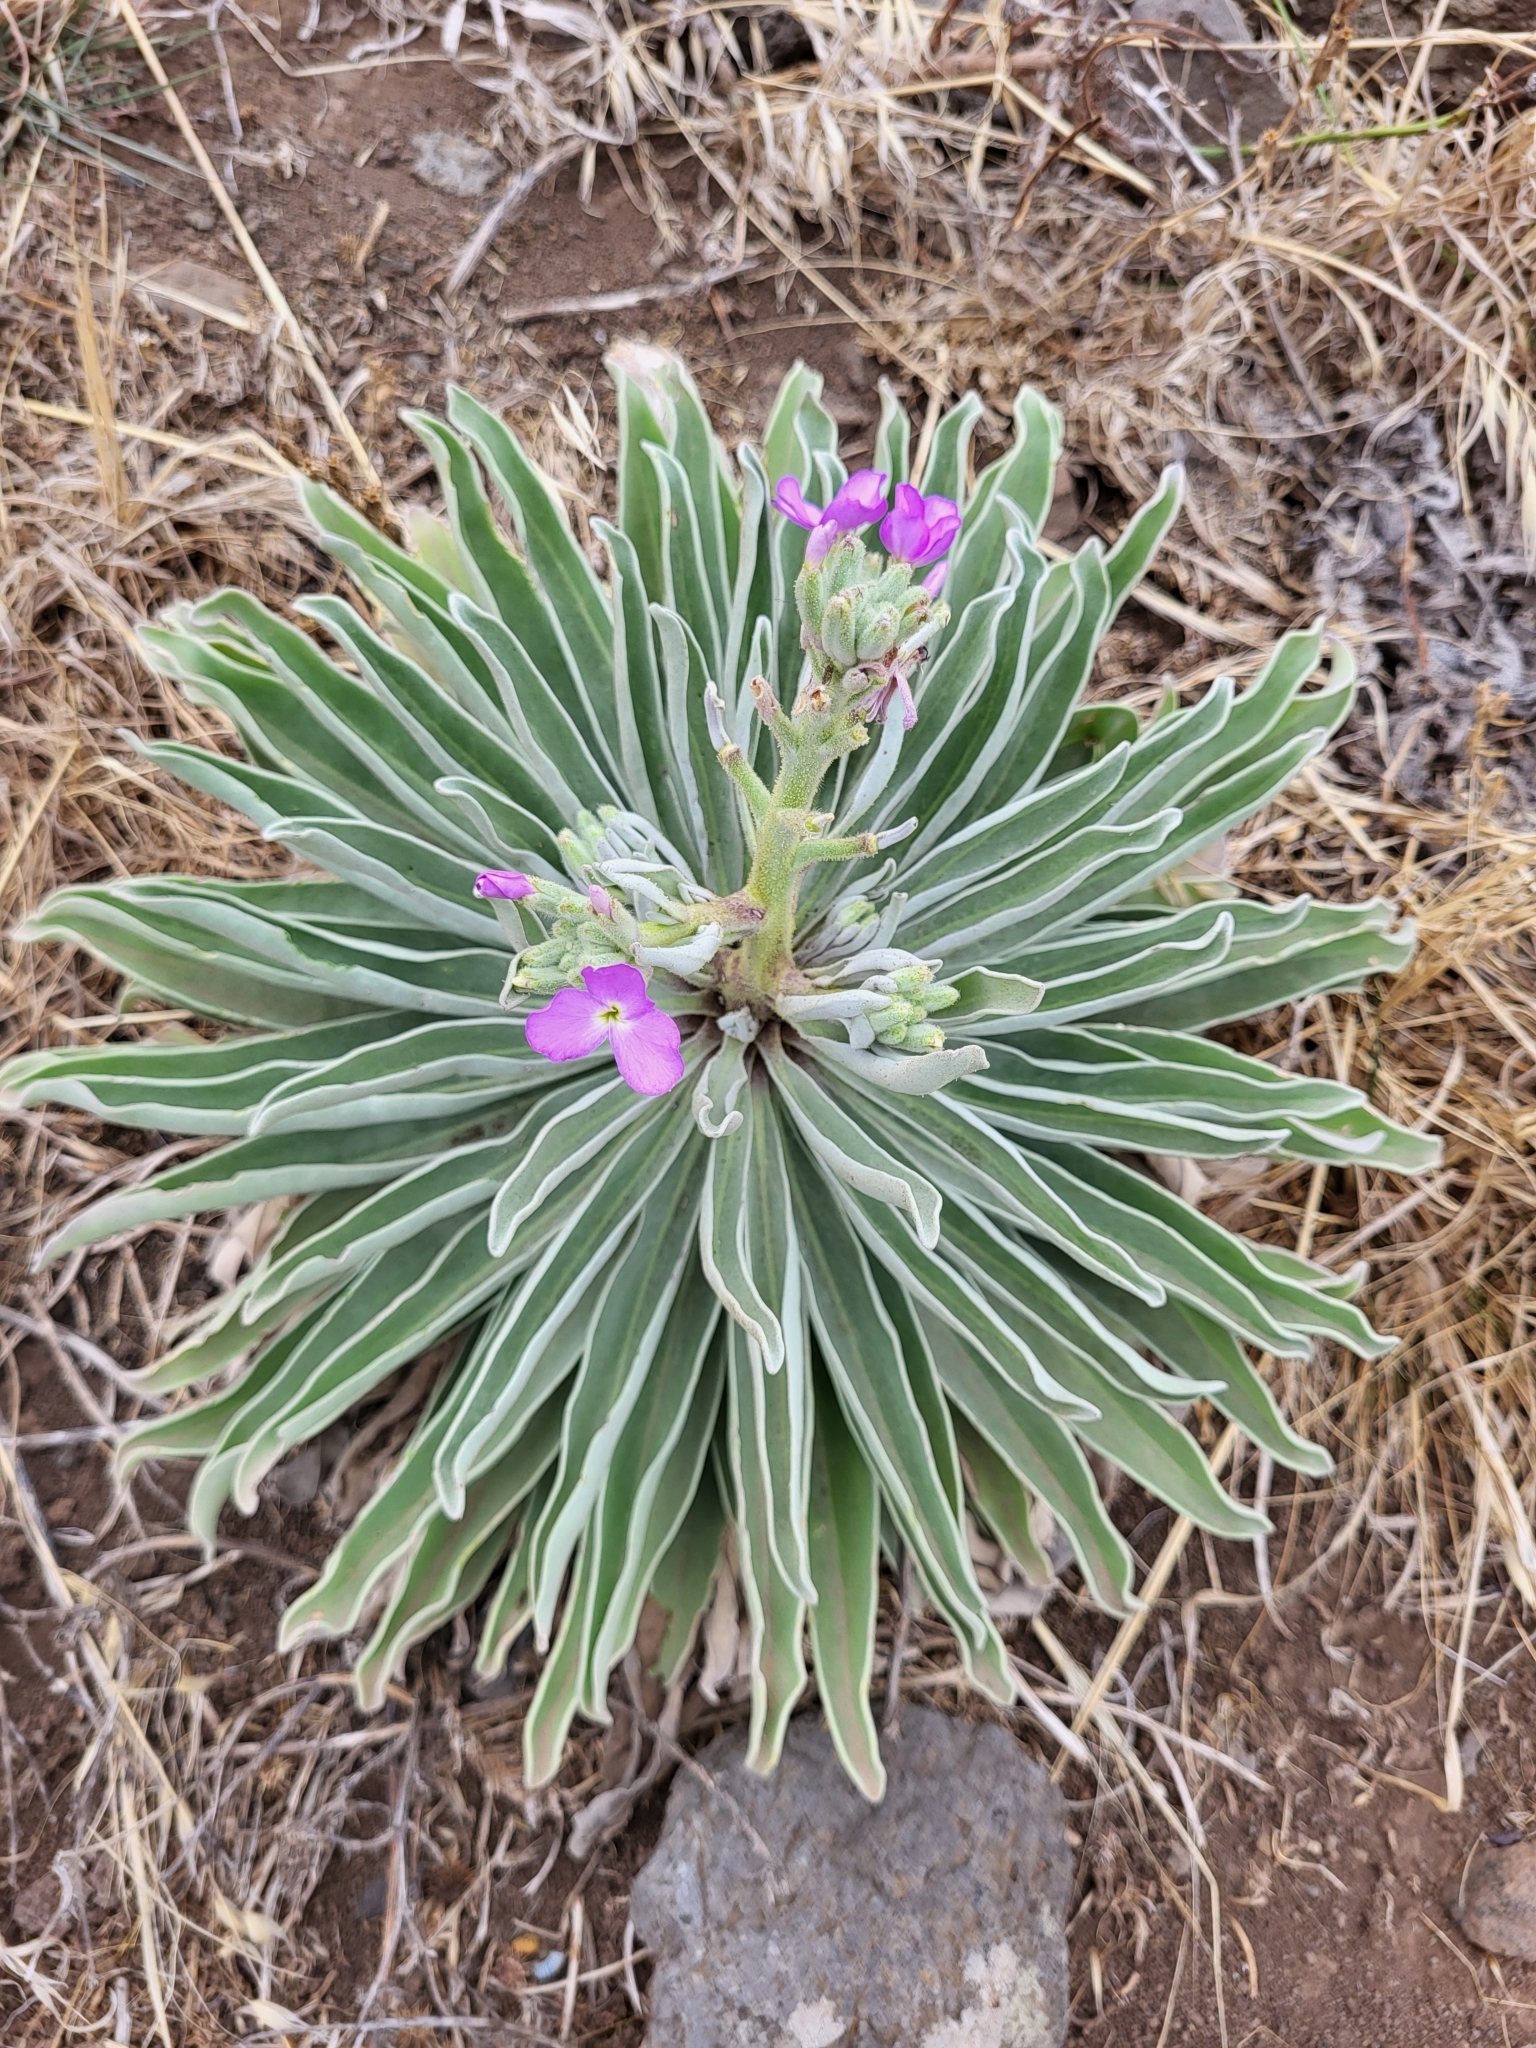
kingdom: Plantae
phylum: Tracheophyta
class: Magnoliopsida
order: Brassicales
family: Brassicaceae
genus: Matthiola
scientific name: Matthiola maderensis
